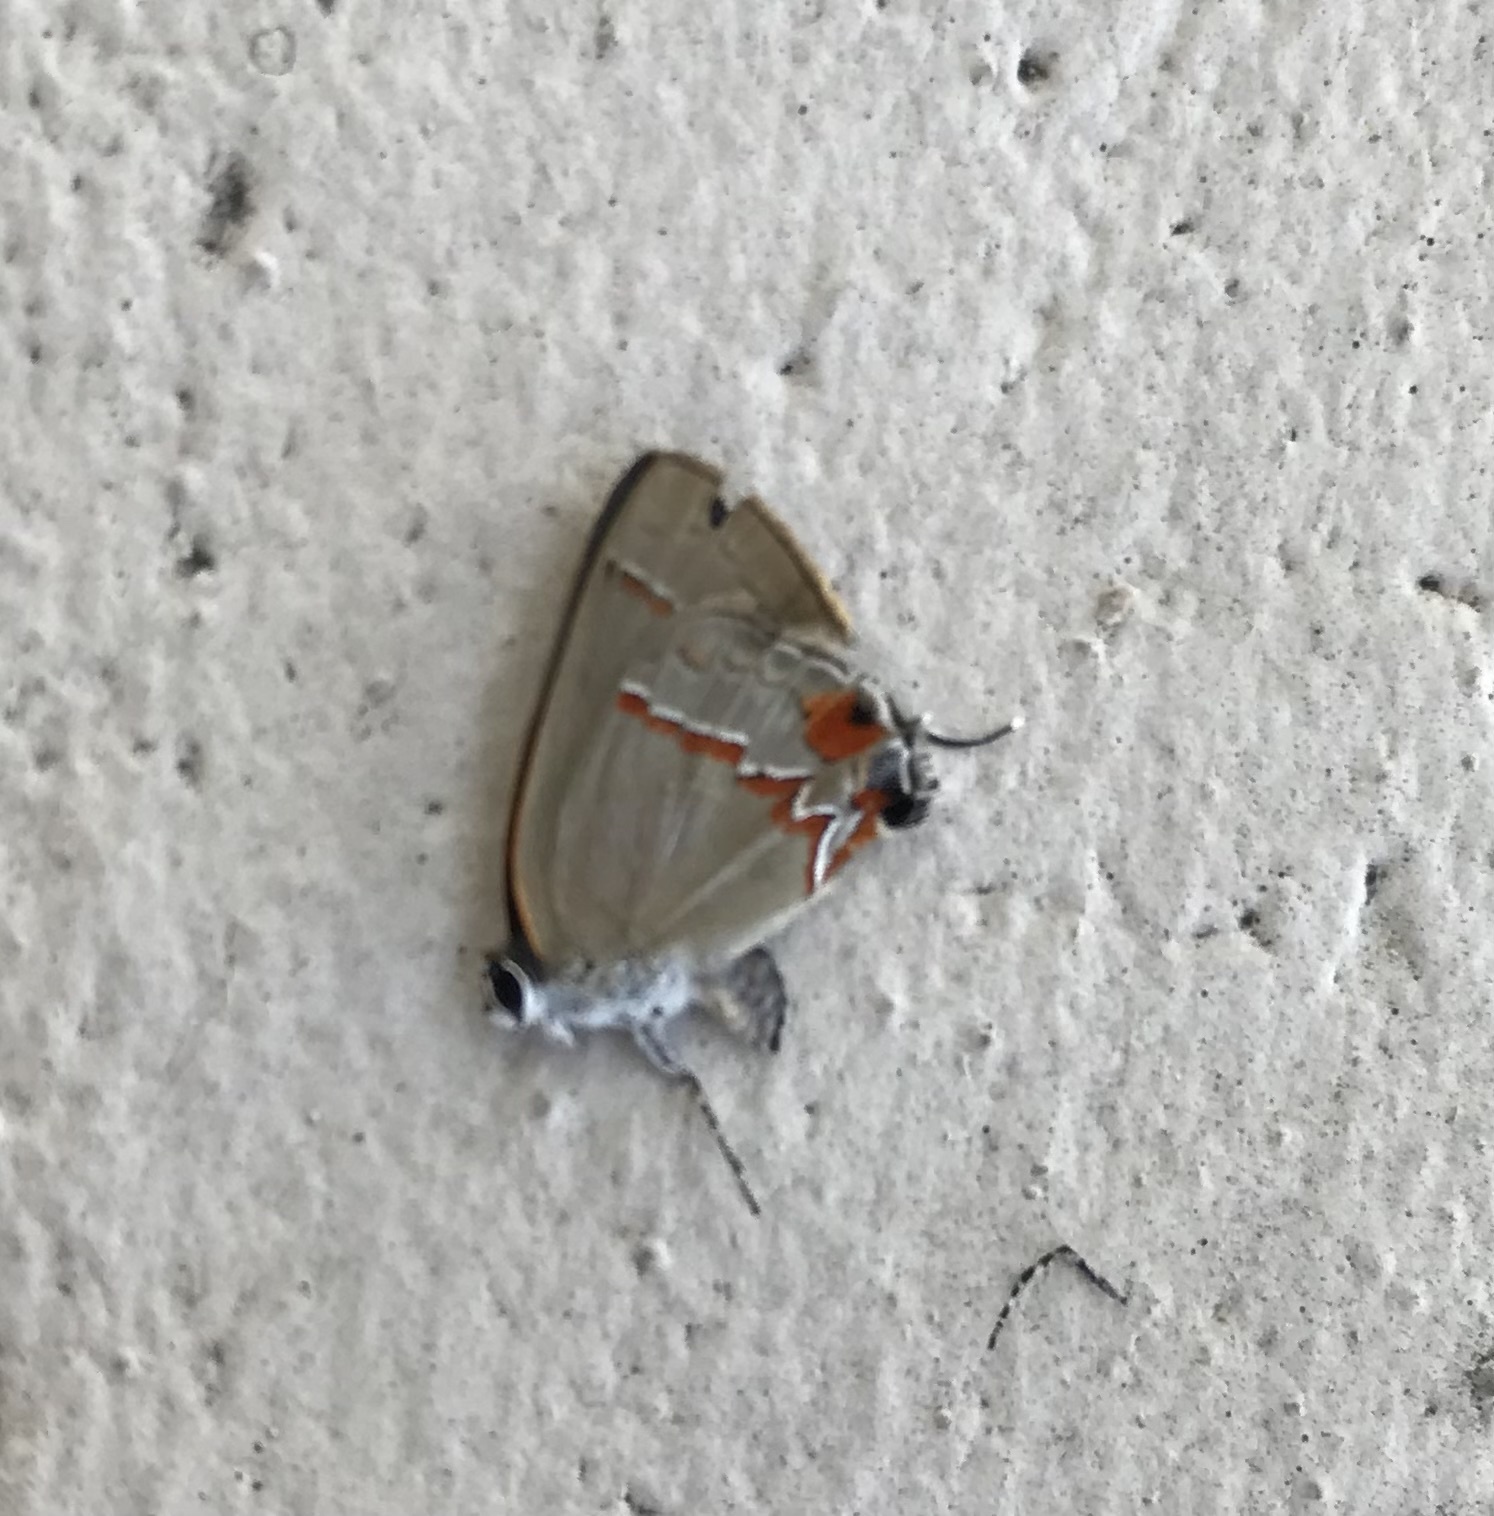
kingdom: Animalia
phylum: Arthropoda
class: Insecta
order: Lepidoptera
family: Lycaenidae
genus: Electrostrymon
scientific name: Electrostrymon endymion
